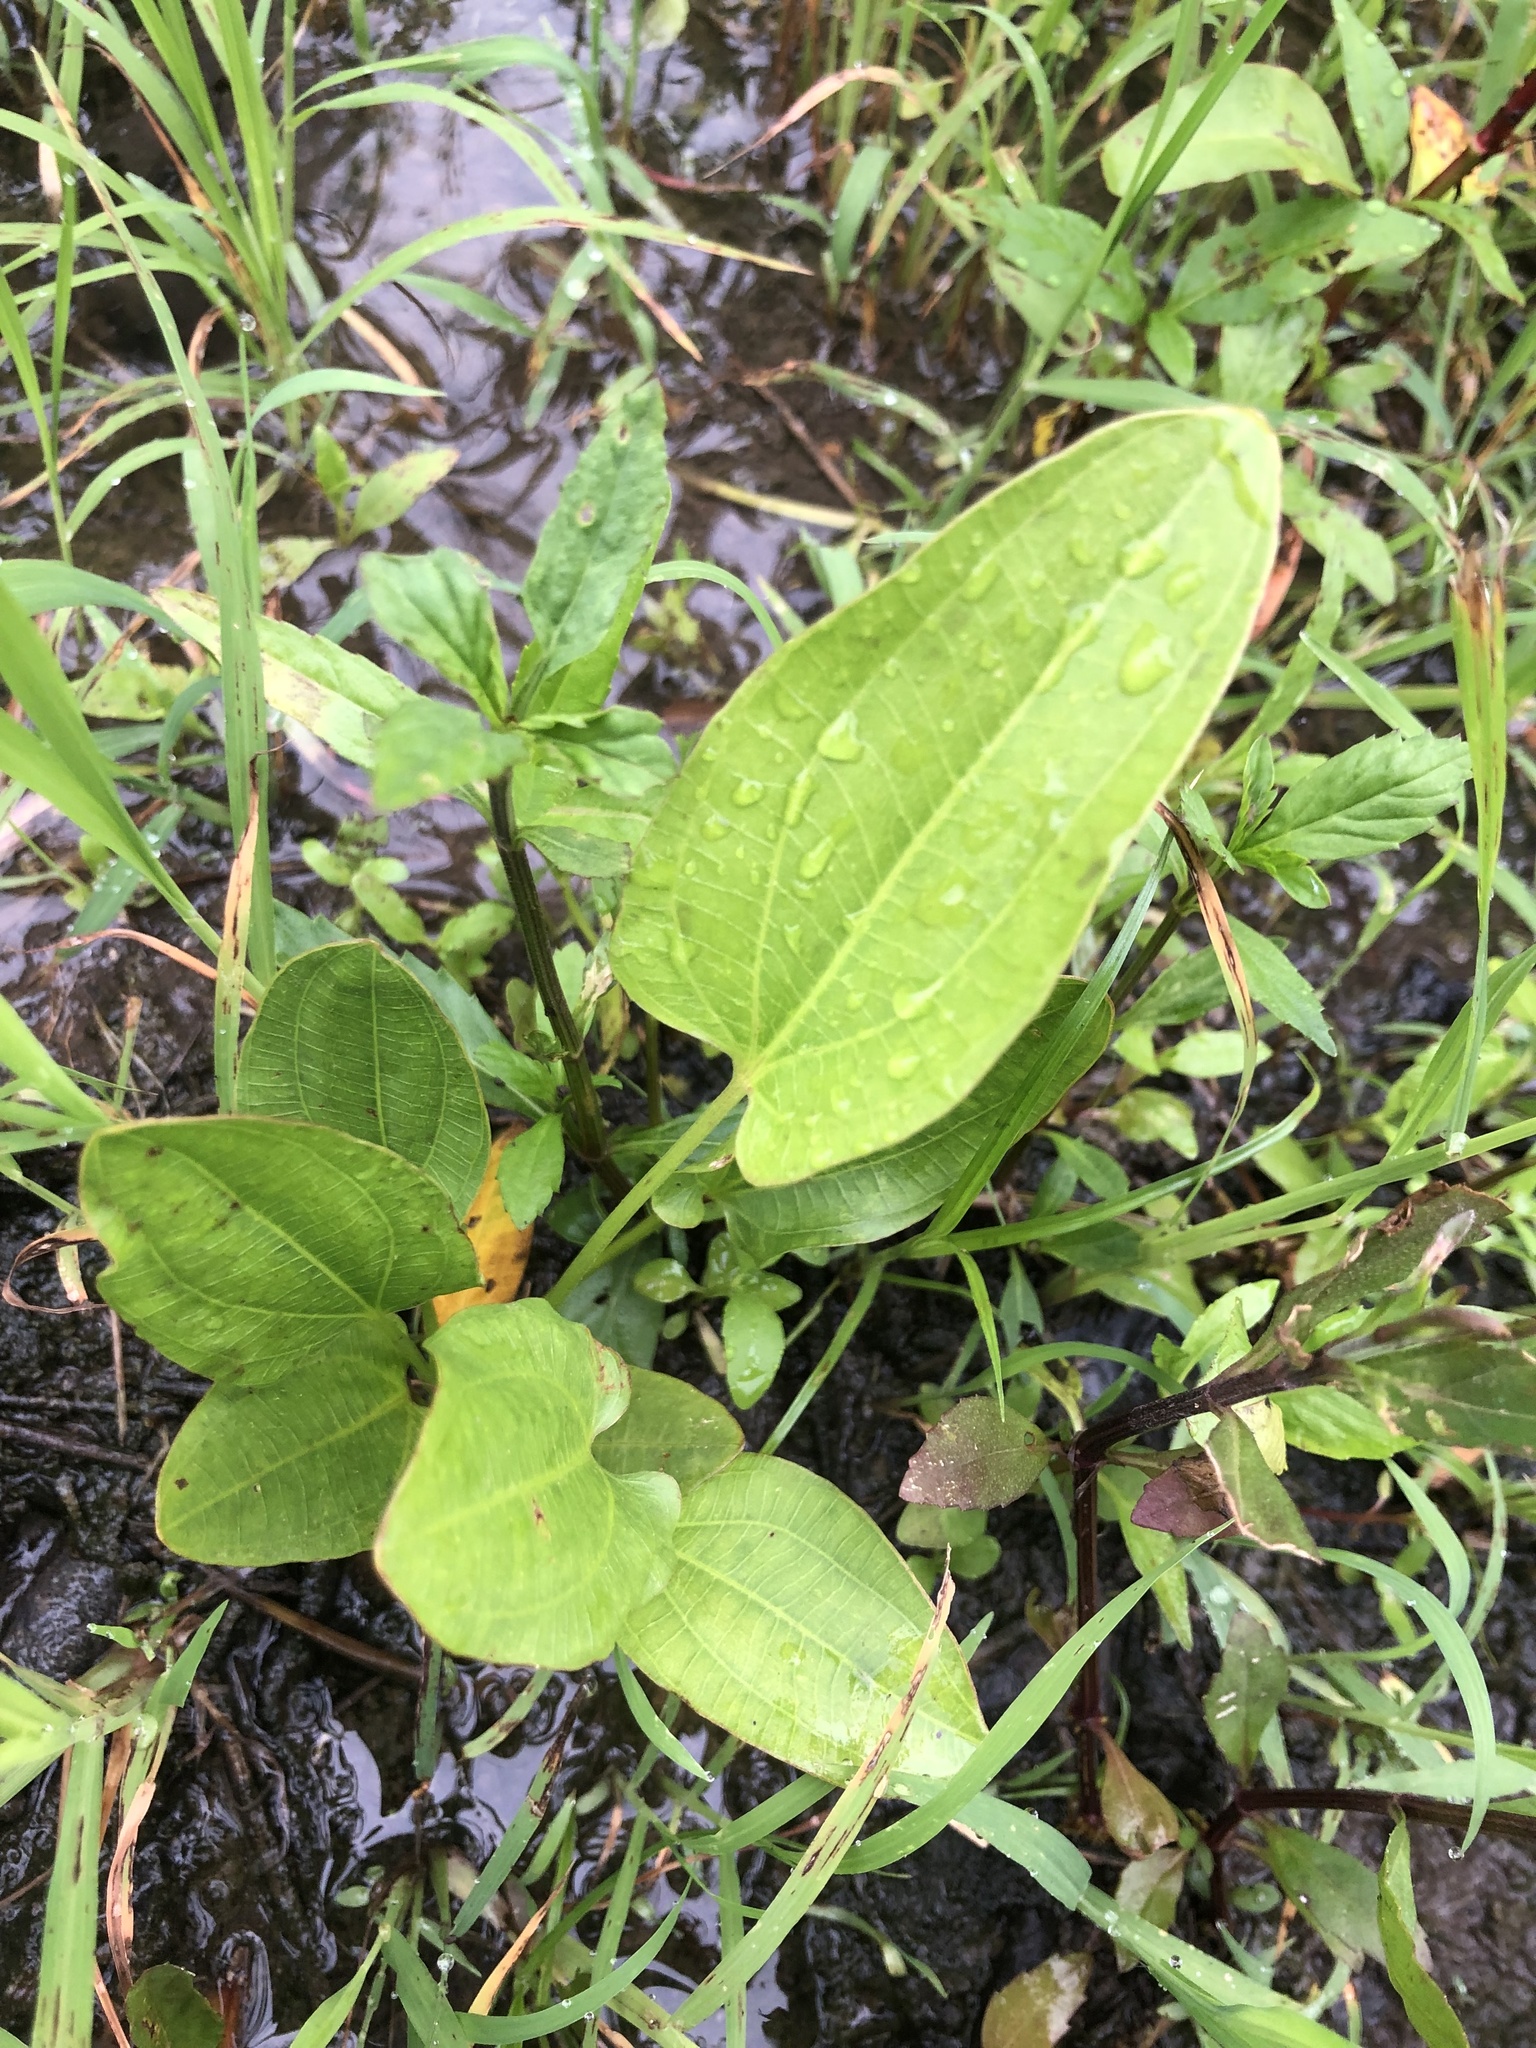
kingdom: Plantae
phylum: Tracheophyta
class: Liliopsida
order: Alismatales
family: Alismataceae
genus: Aquarius
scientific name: Aquarius cordifolius
